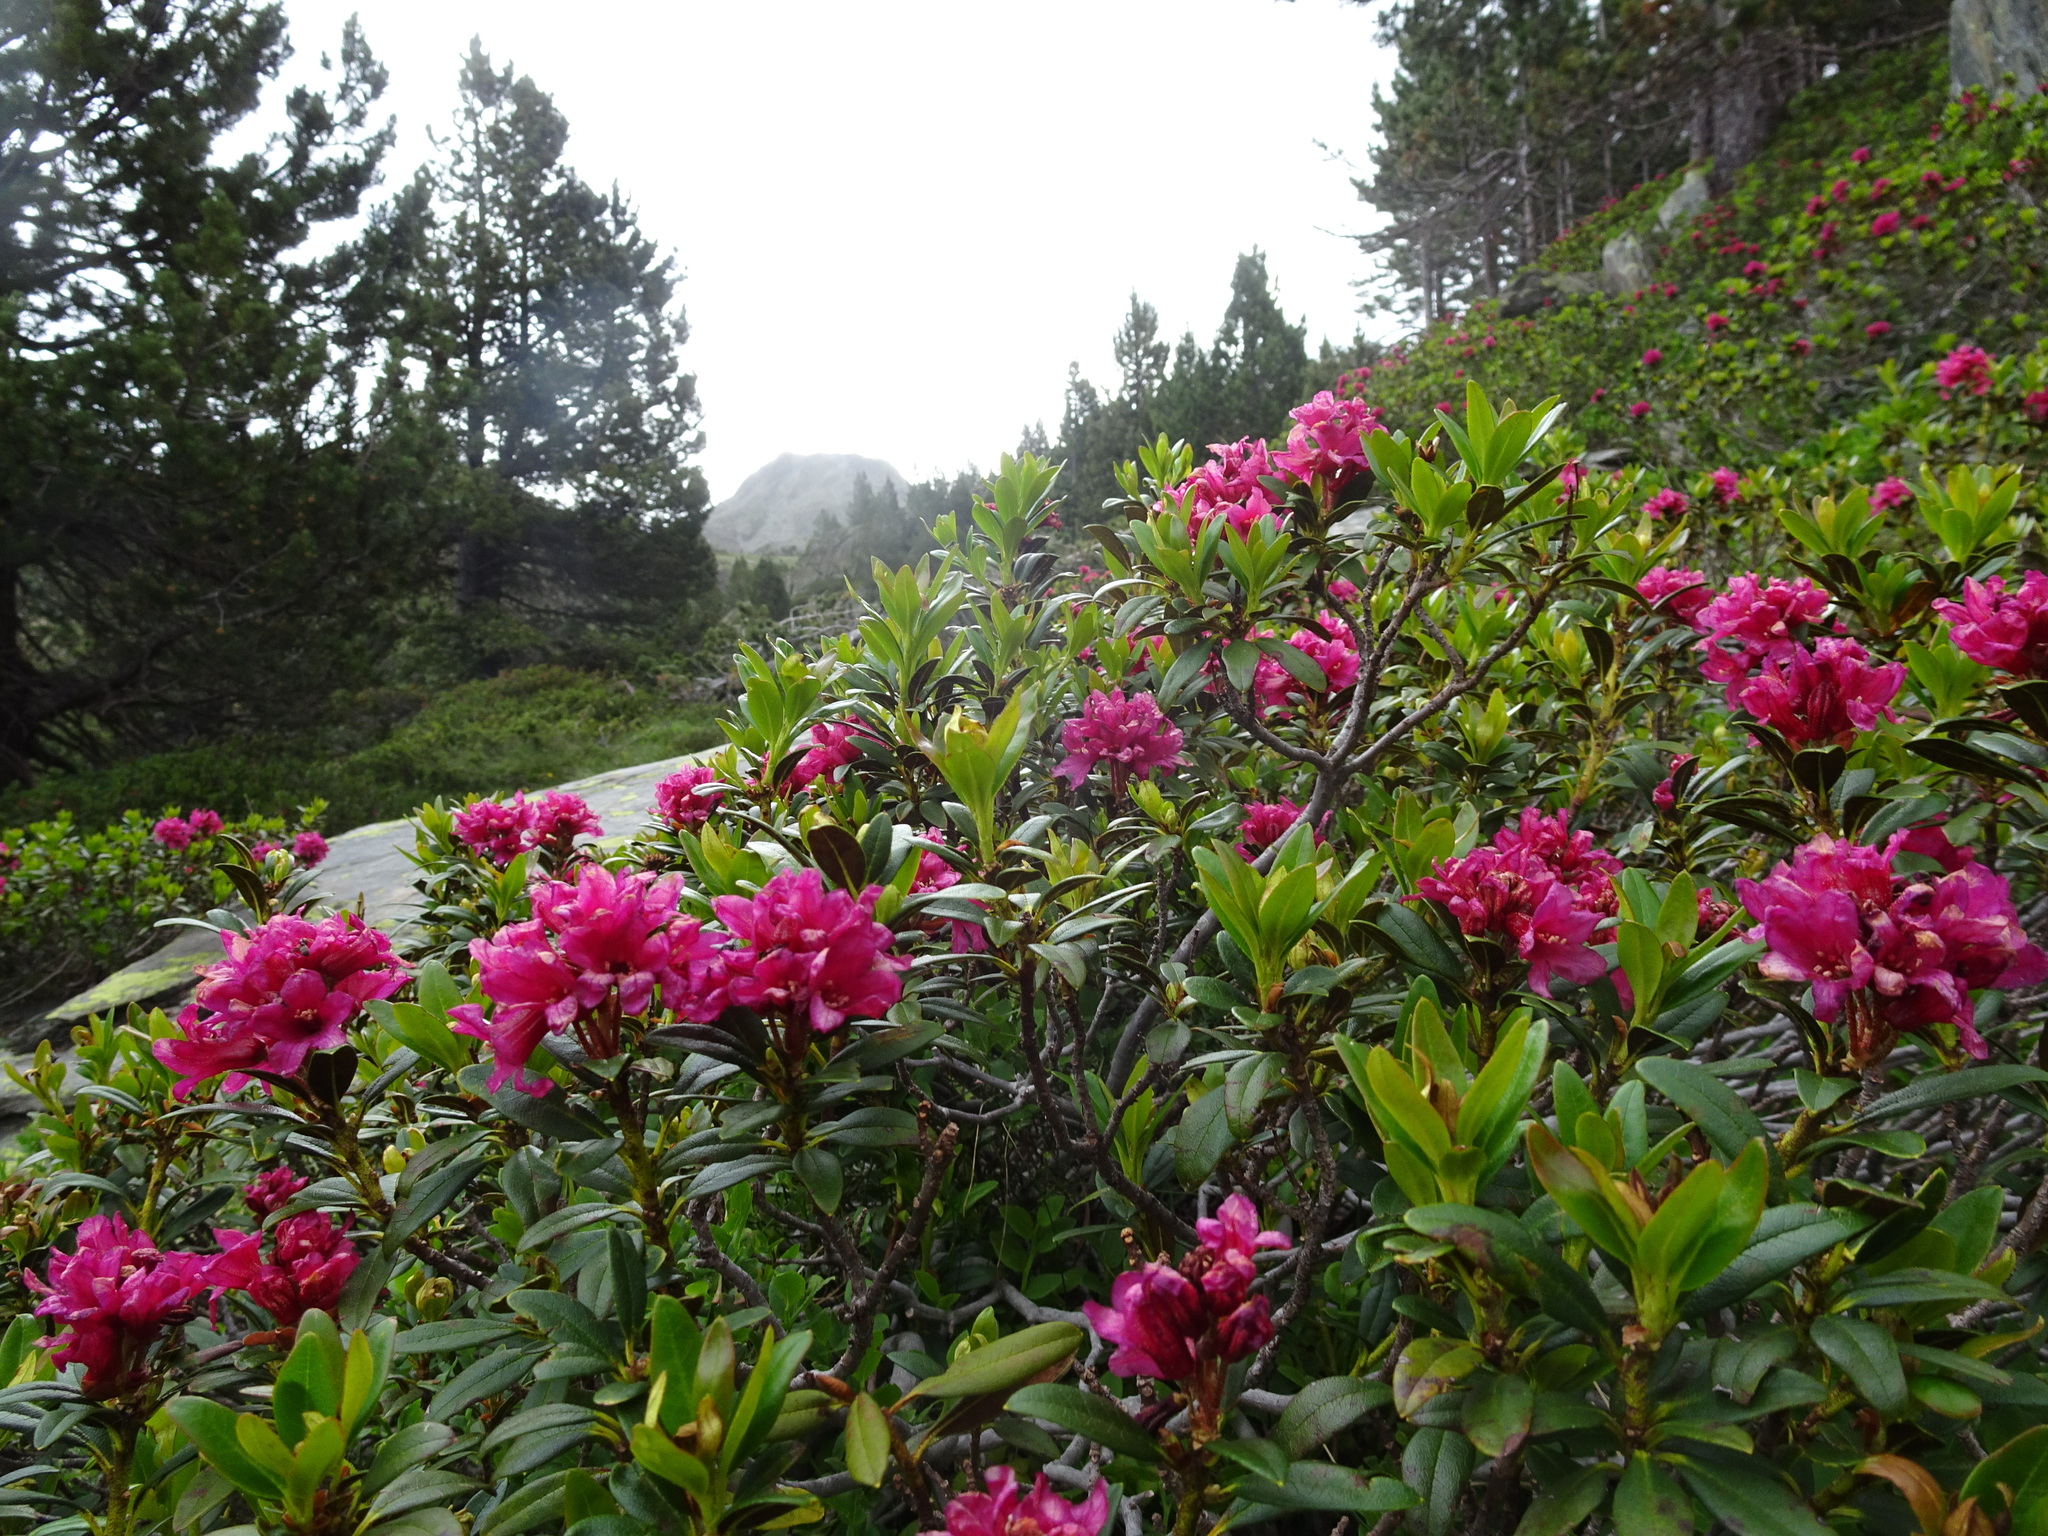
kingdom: Plantae
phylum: Tracheophyta
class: Magnoliopsida
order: Ericales
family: Ericaceae
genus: Rhododendron
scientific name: Rhododendron ferrugineum
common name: Alpenrose
